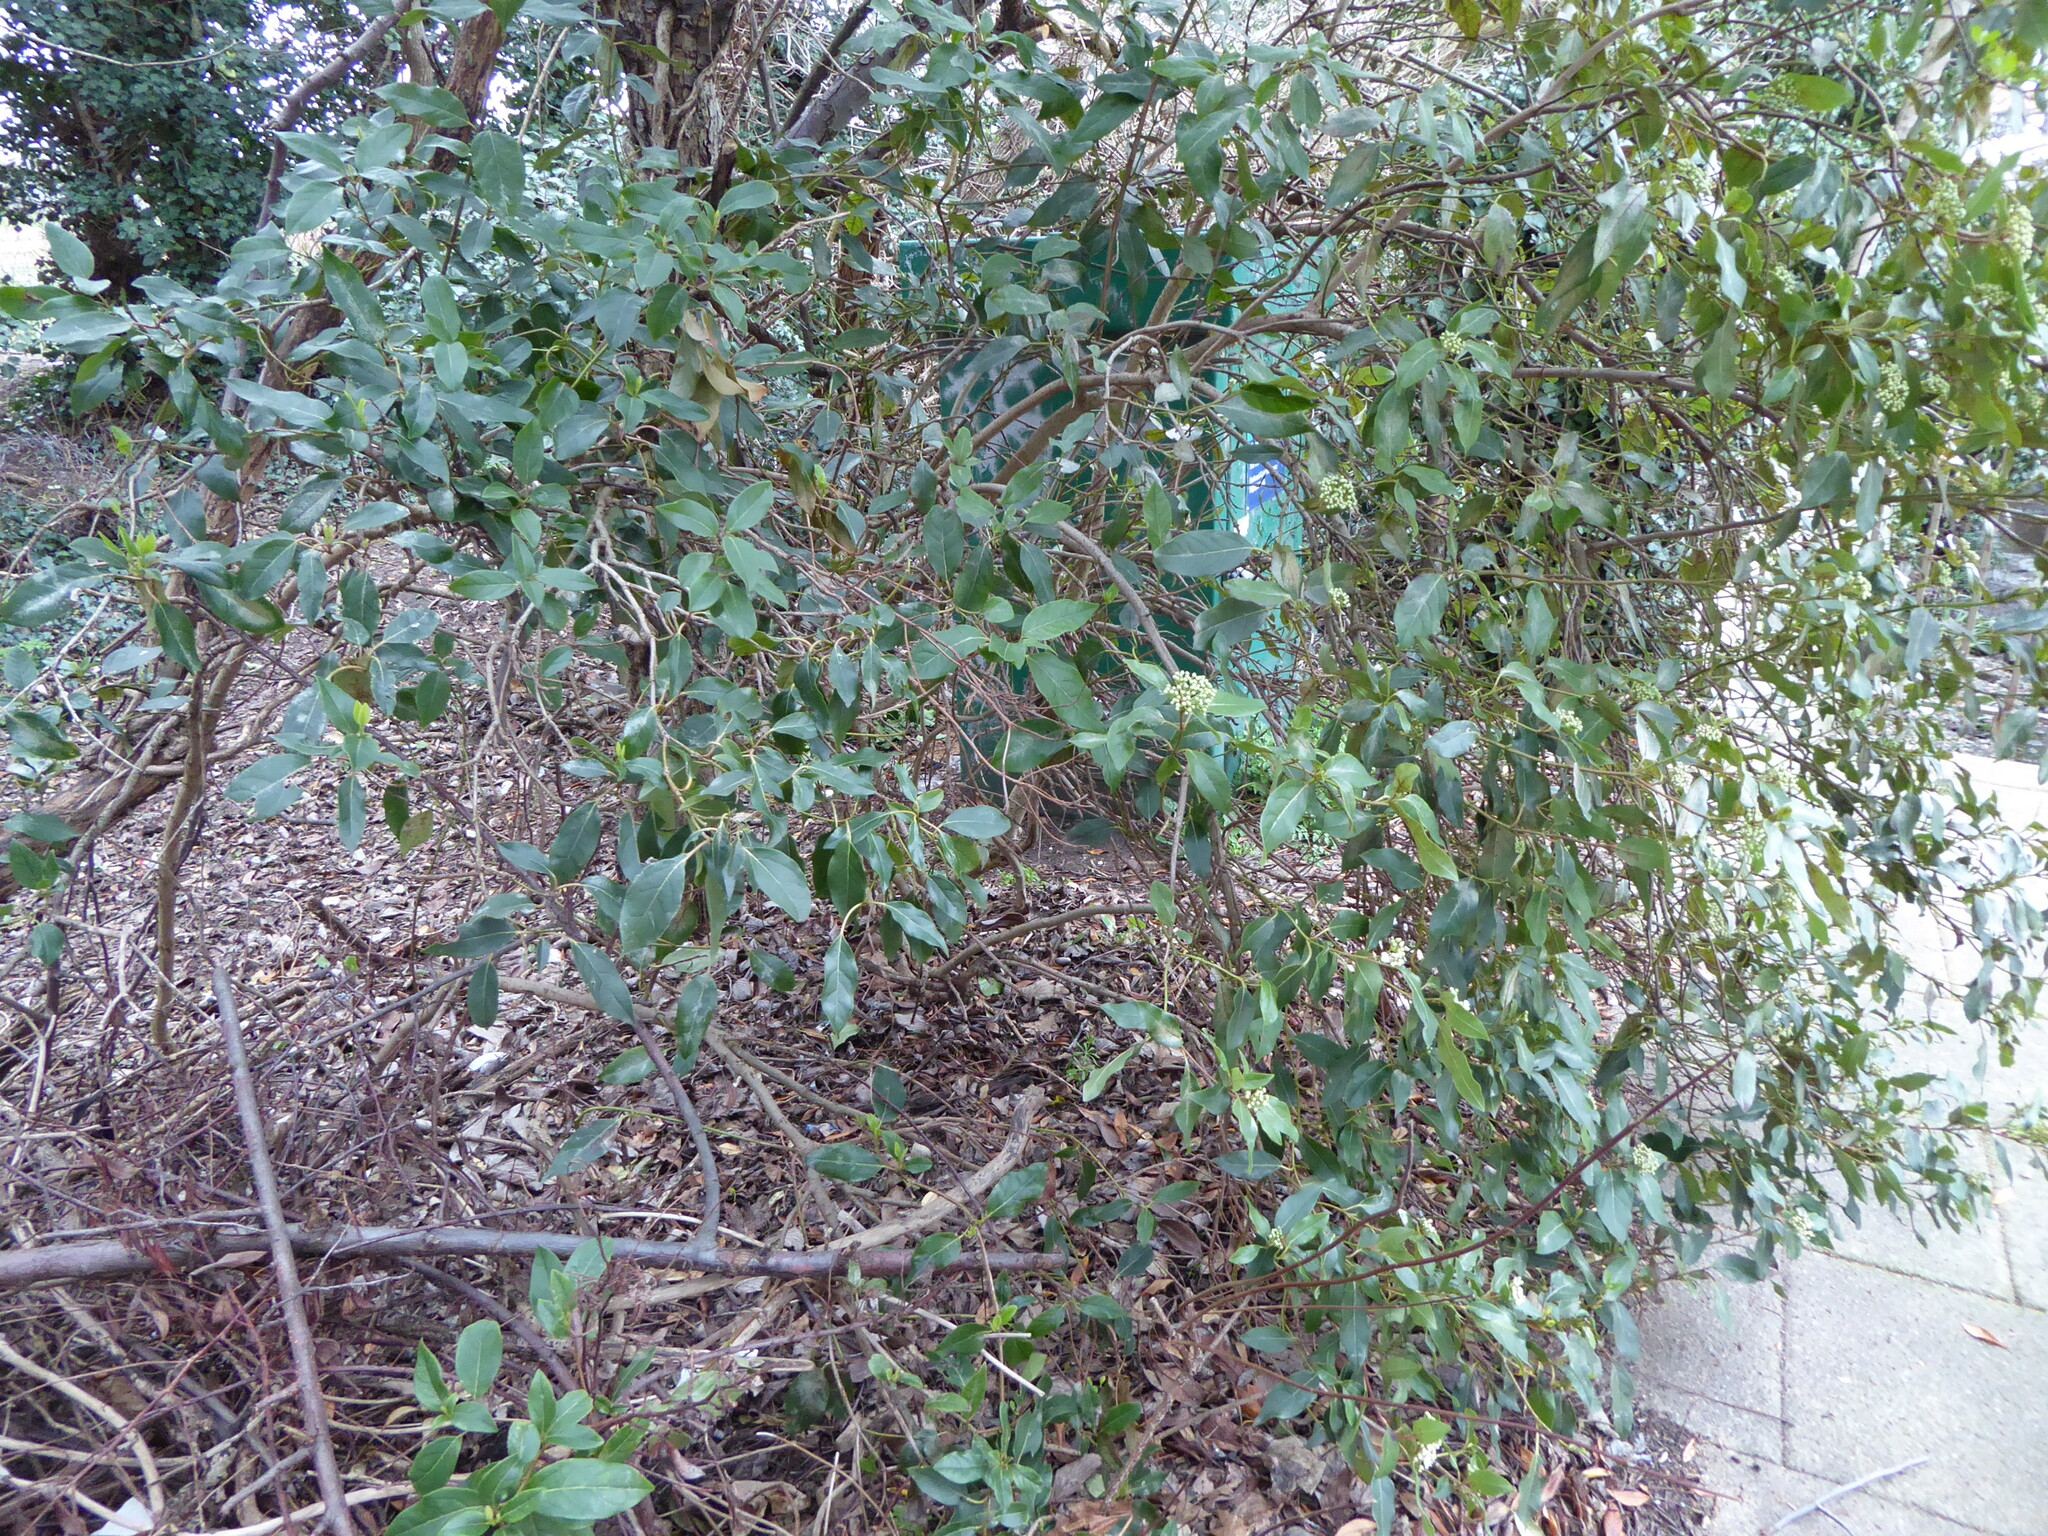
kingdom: Plantae
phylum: Tracheophyta
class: Magnoliopsida
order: Dipsacales
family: Viburnaceae
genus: Viburnum
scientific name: Viburnum tinus
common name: Laurustinus
